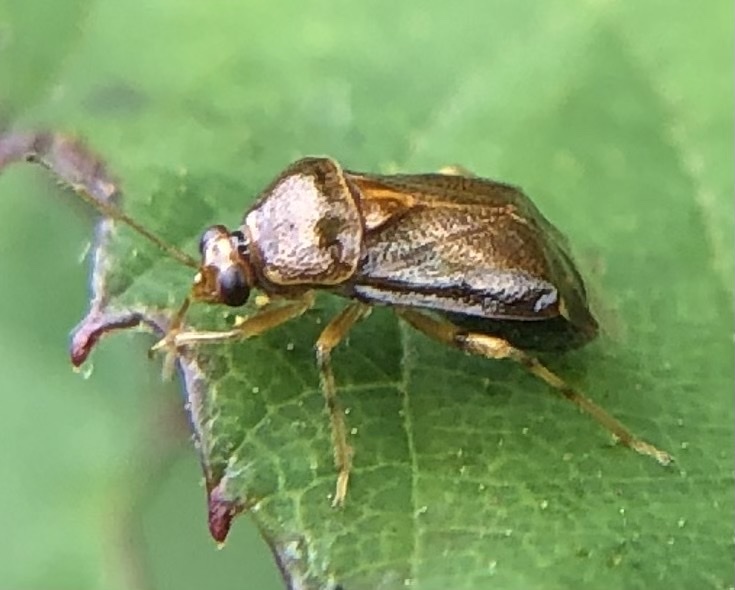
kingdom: Animalia
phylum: Arthropoda
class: Insecta
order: Hemiptera
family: Miridae
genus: Deraeocoris
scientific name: Deraeocoris lutescens
